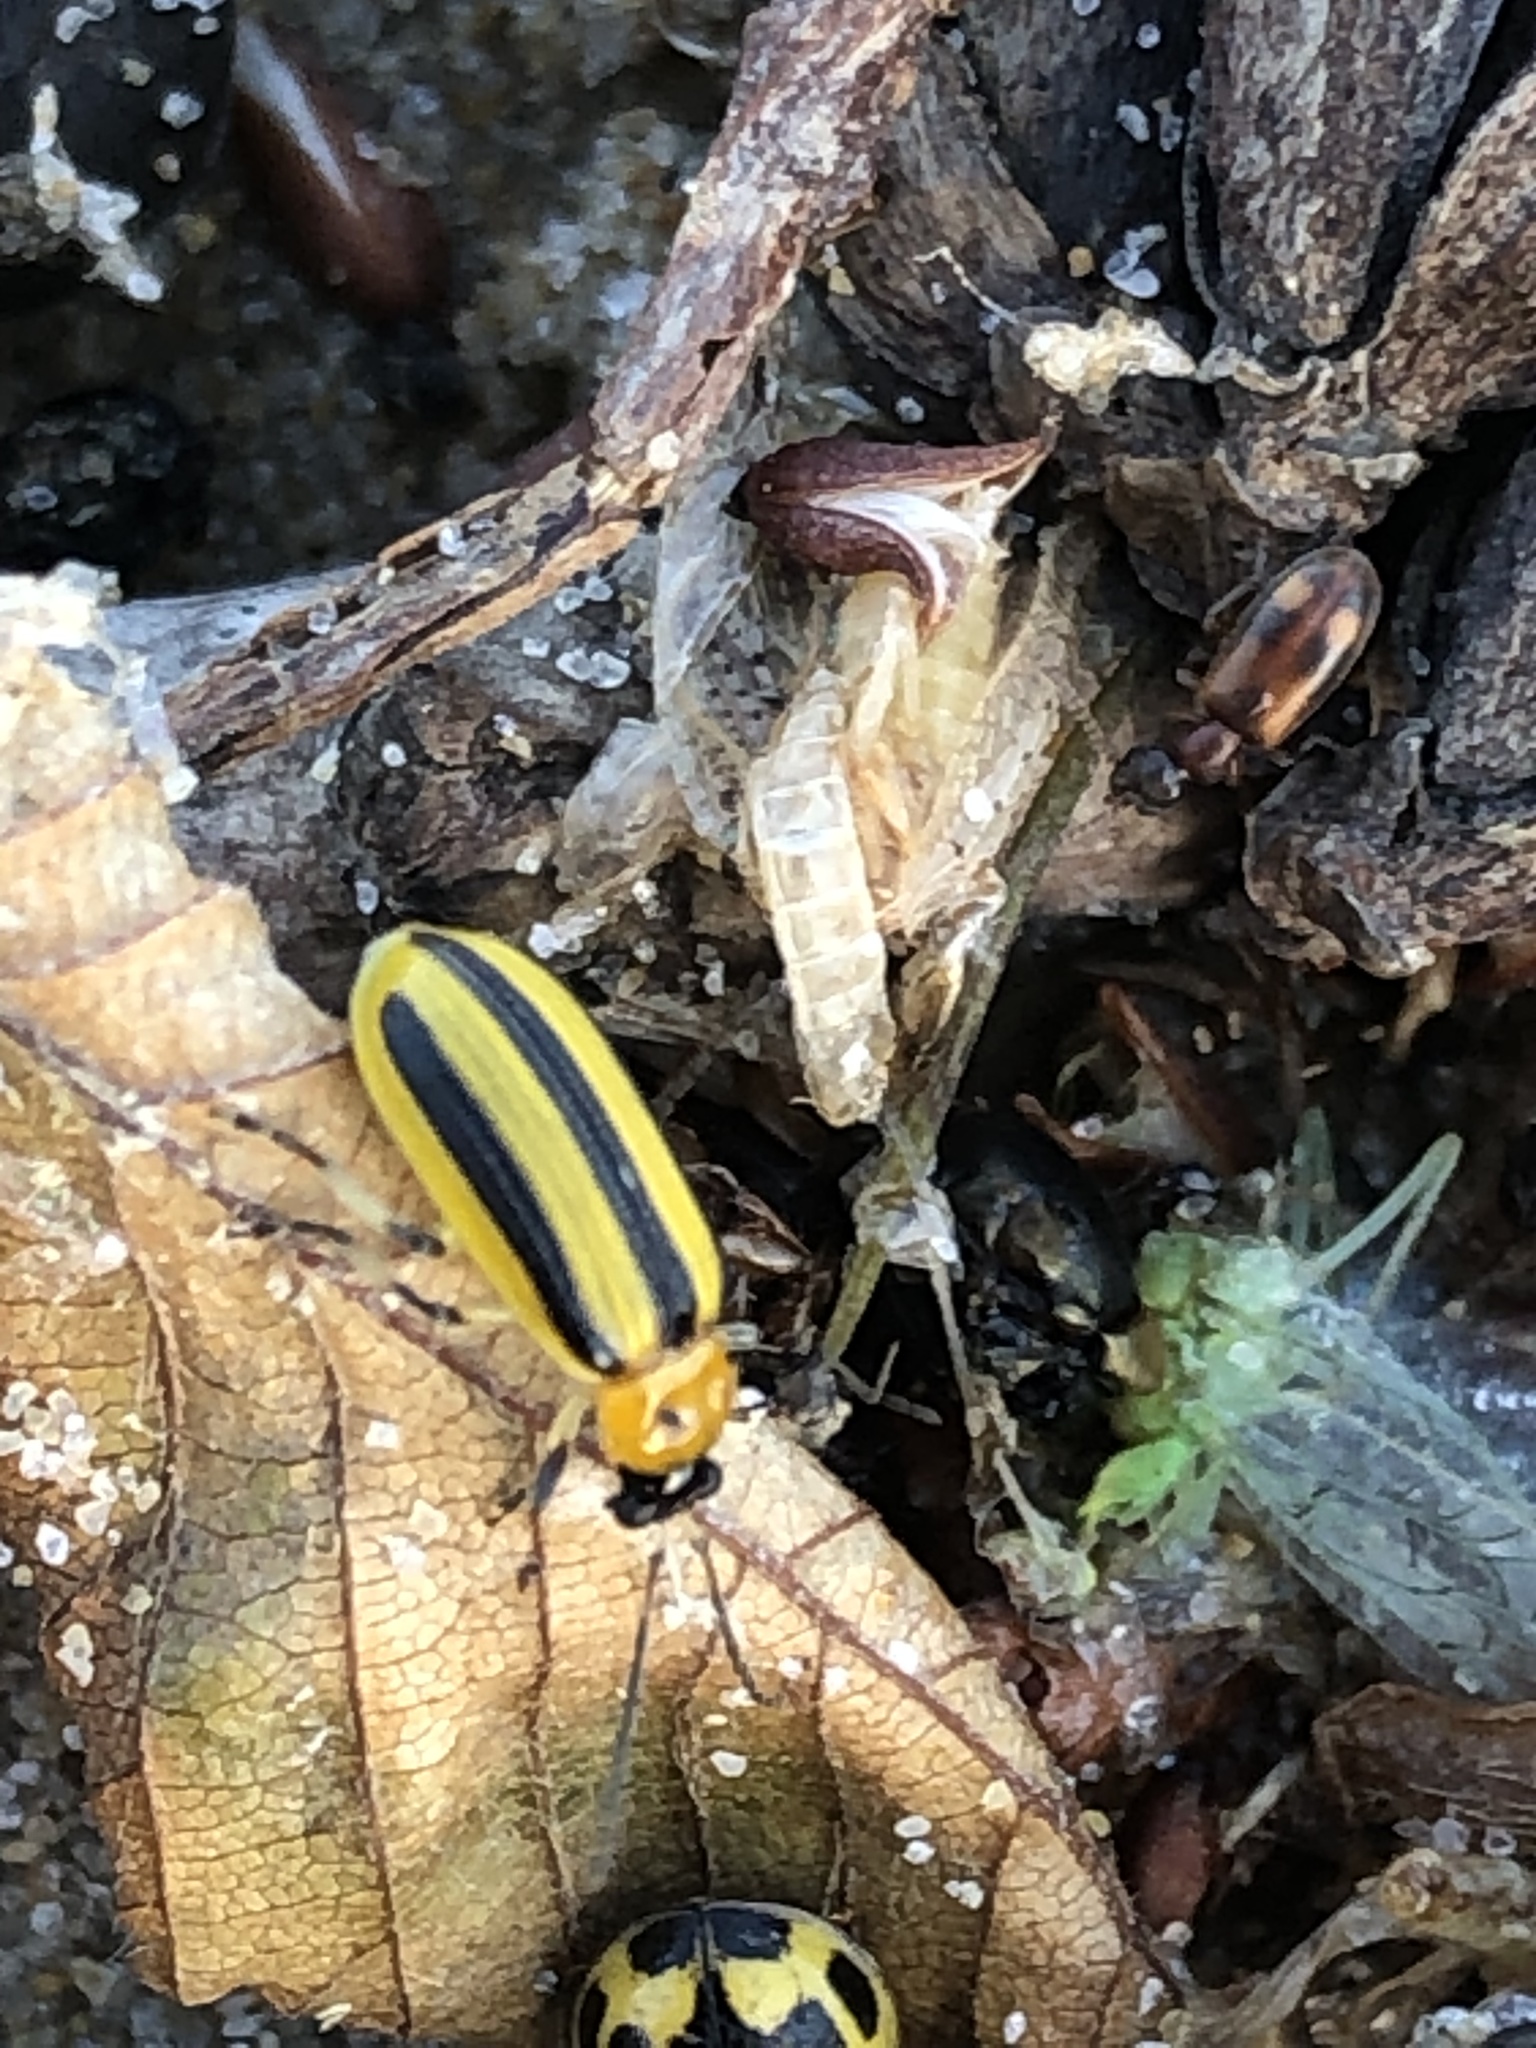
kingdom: Animalia
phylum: Arthropoda
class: Insecta
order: Coleoptera
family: Chrysomelidae
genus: Acalymma
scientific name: Acalymma vittatum
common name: Striped cucumber beetle
